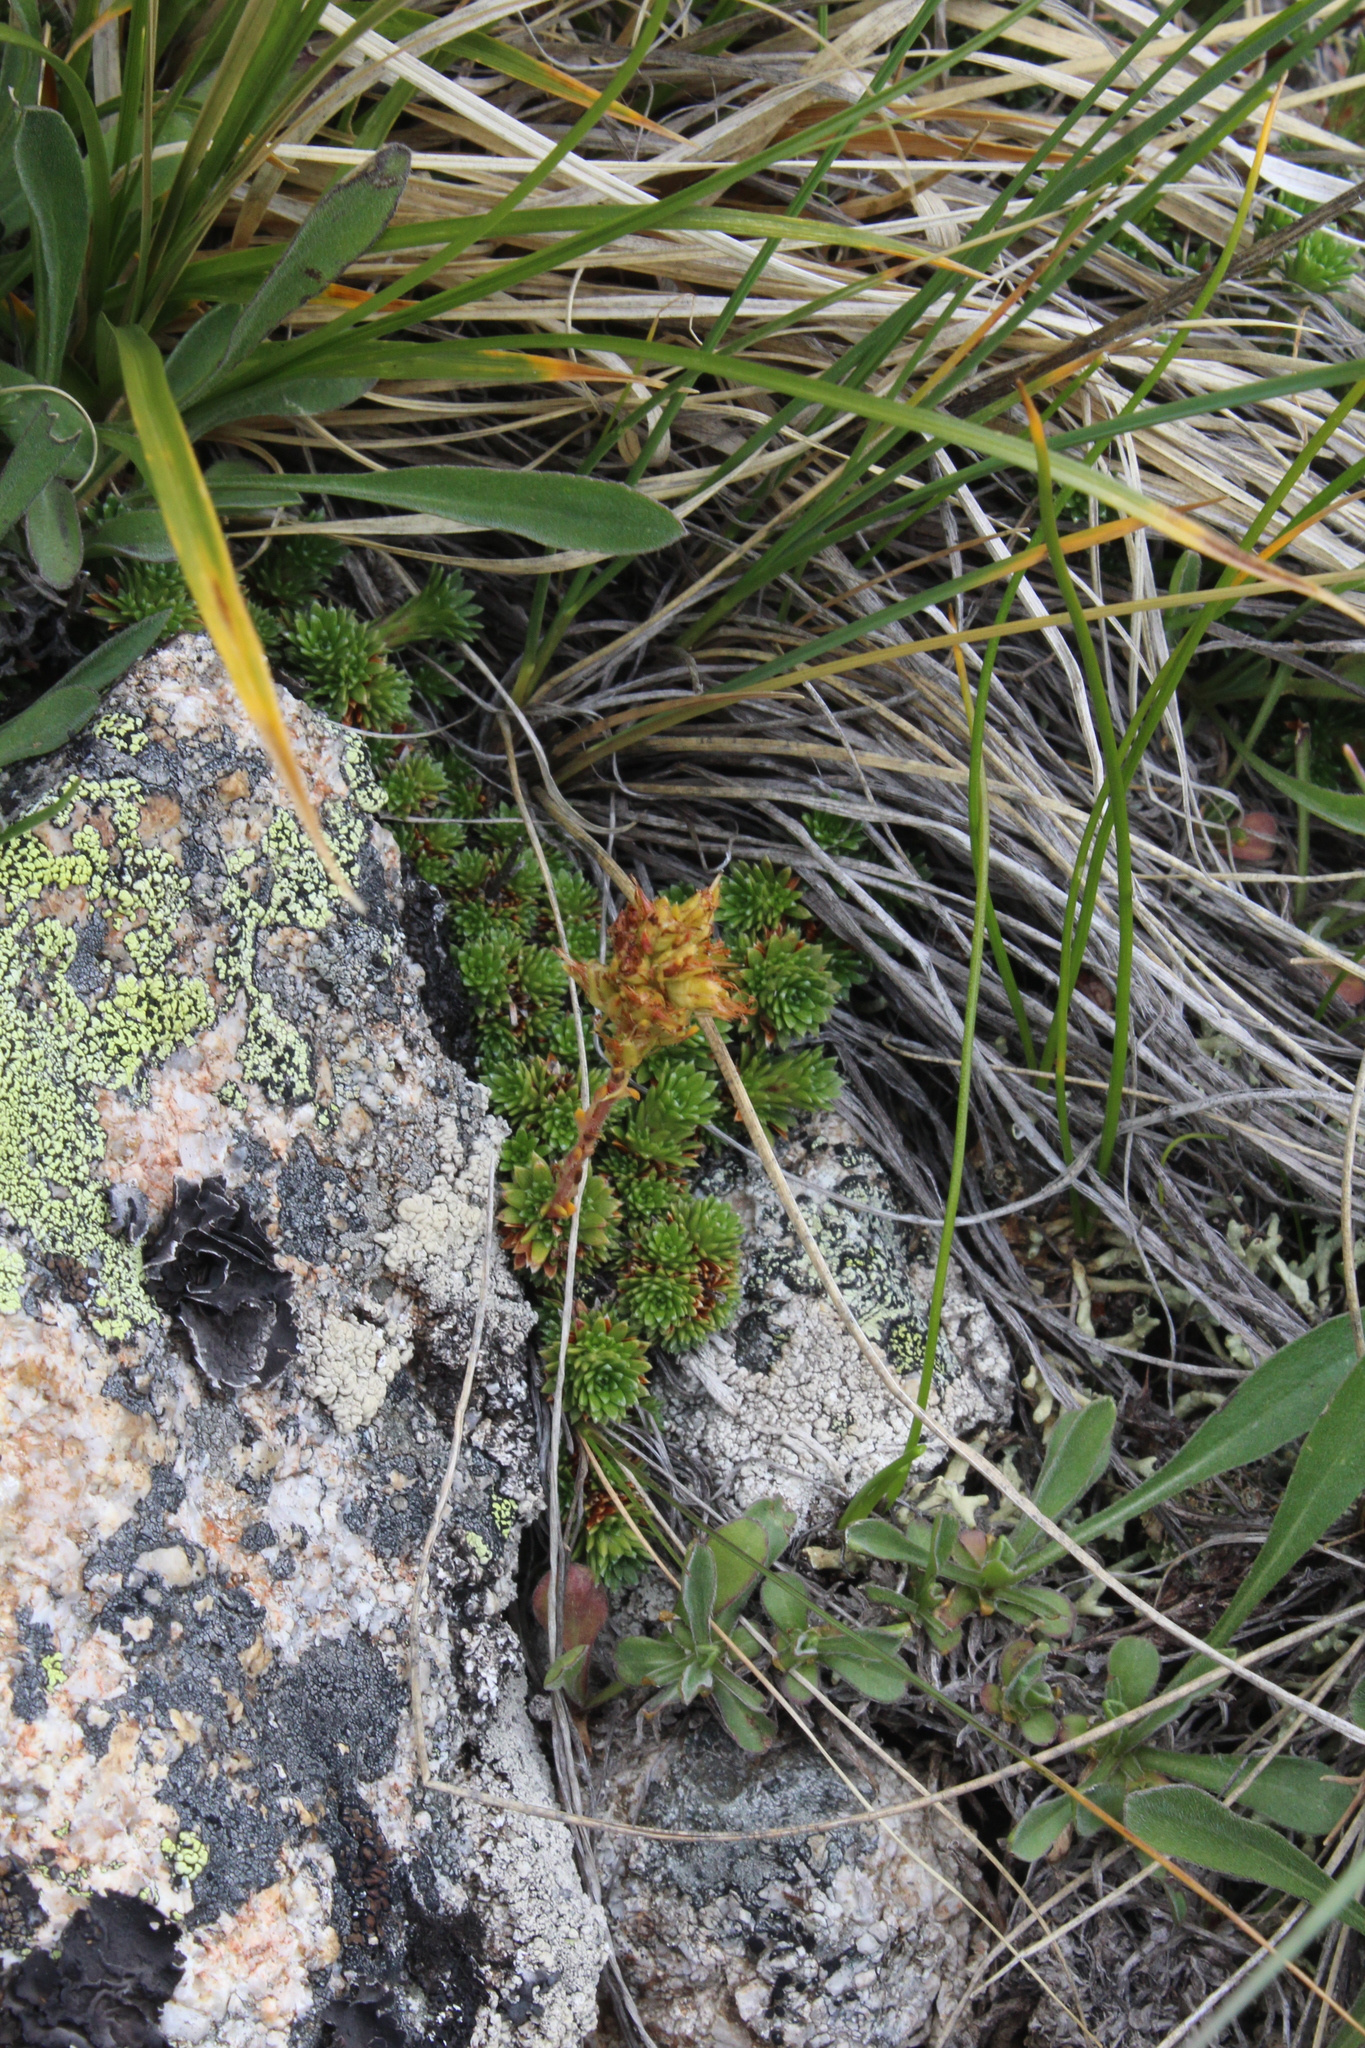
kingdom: Plantae
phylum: Tracheophyta
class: Magnoliopsida
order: Saxifragales
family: Saxifragaceae
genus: Saxifraga
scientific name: Saxifraga caucasica
